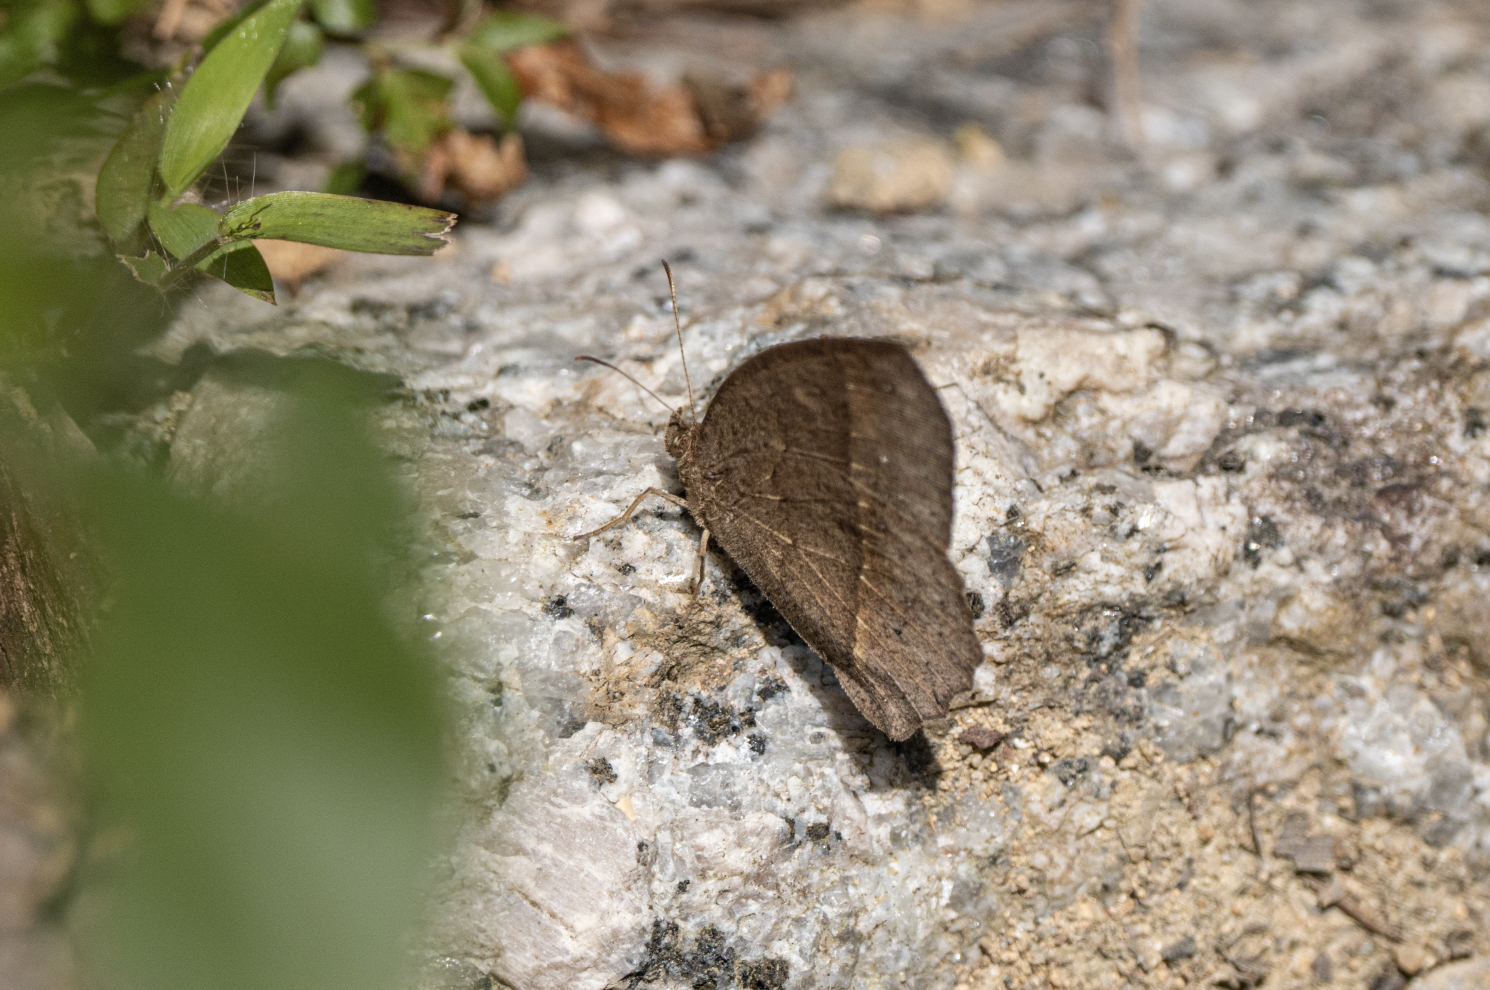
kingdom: Animalia
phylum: Arthropoda
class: Insecta
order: Lepidoptera
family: Nymphalidae
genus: Mycalesis
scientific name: Mycalesis horsfieldii
